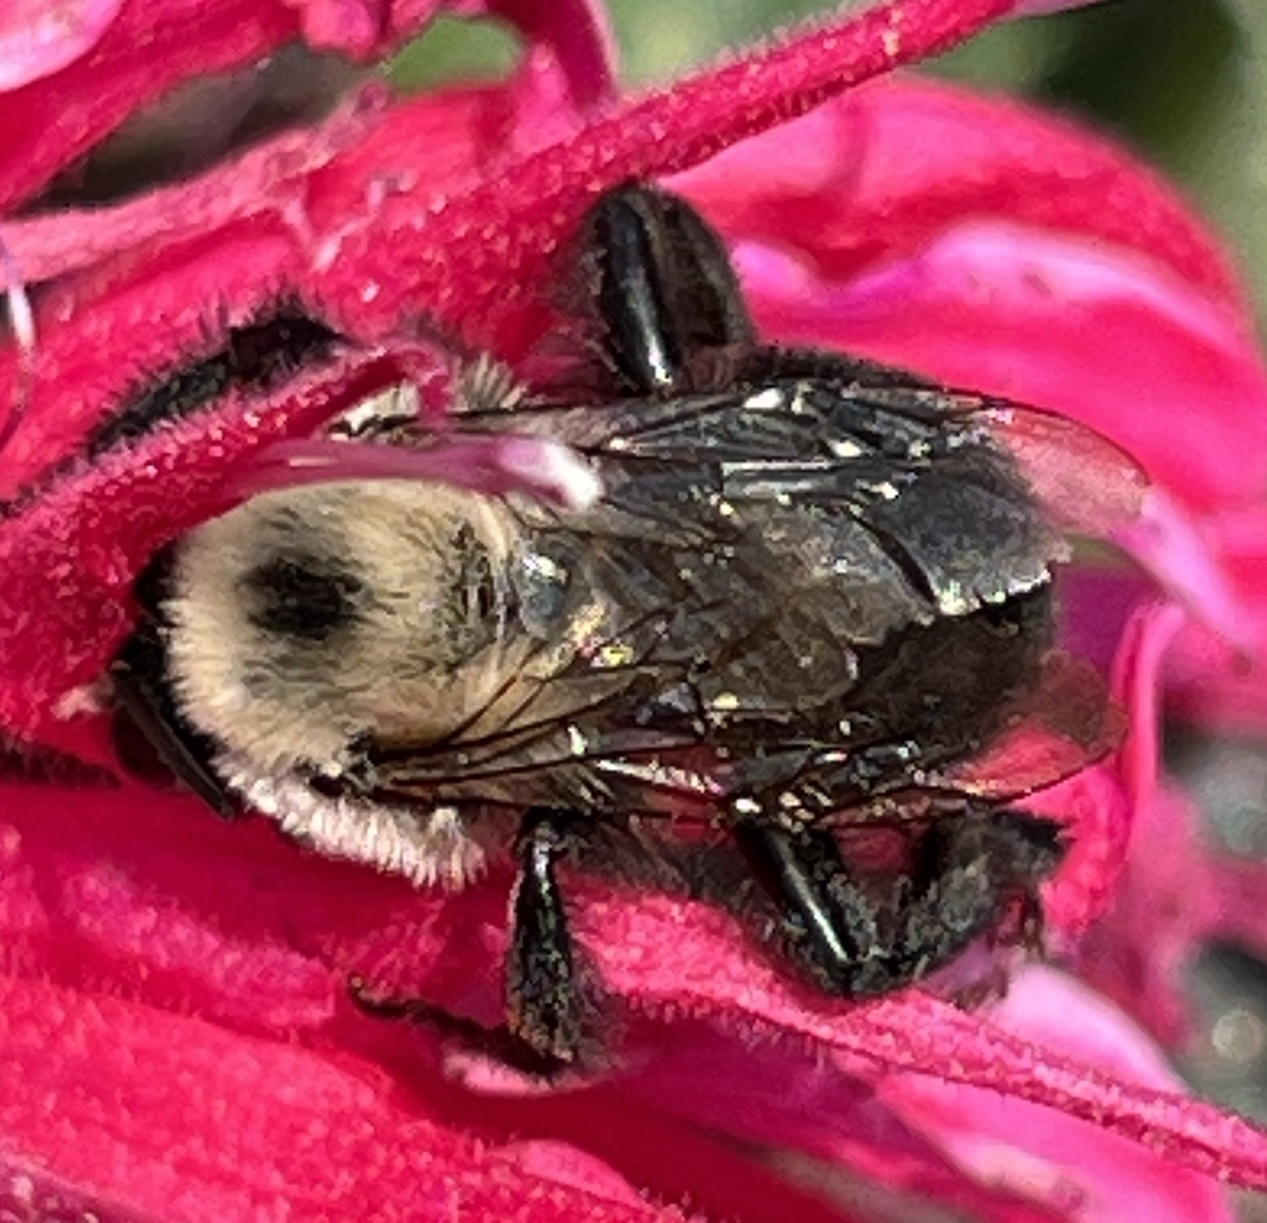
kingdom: Animalia
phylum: Arthropoda
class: Insecta
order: Hymenoptera
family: Apidae
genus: Anthophora
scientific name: Anthophora abrupta
